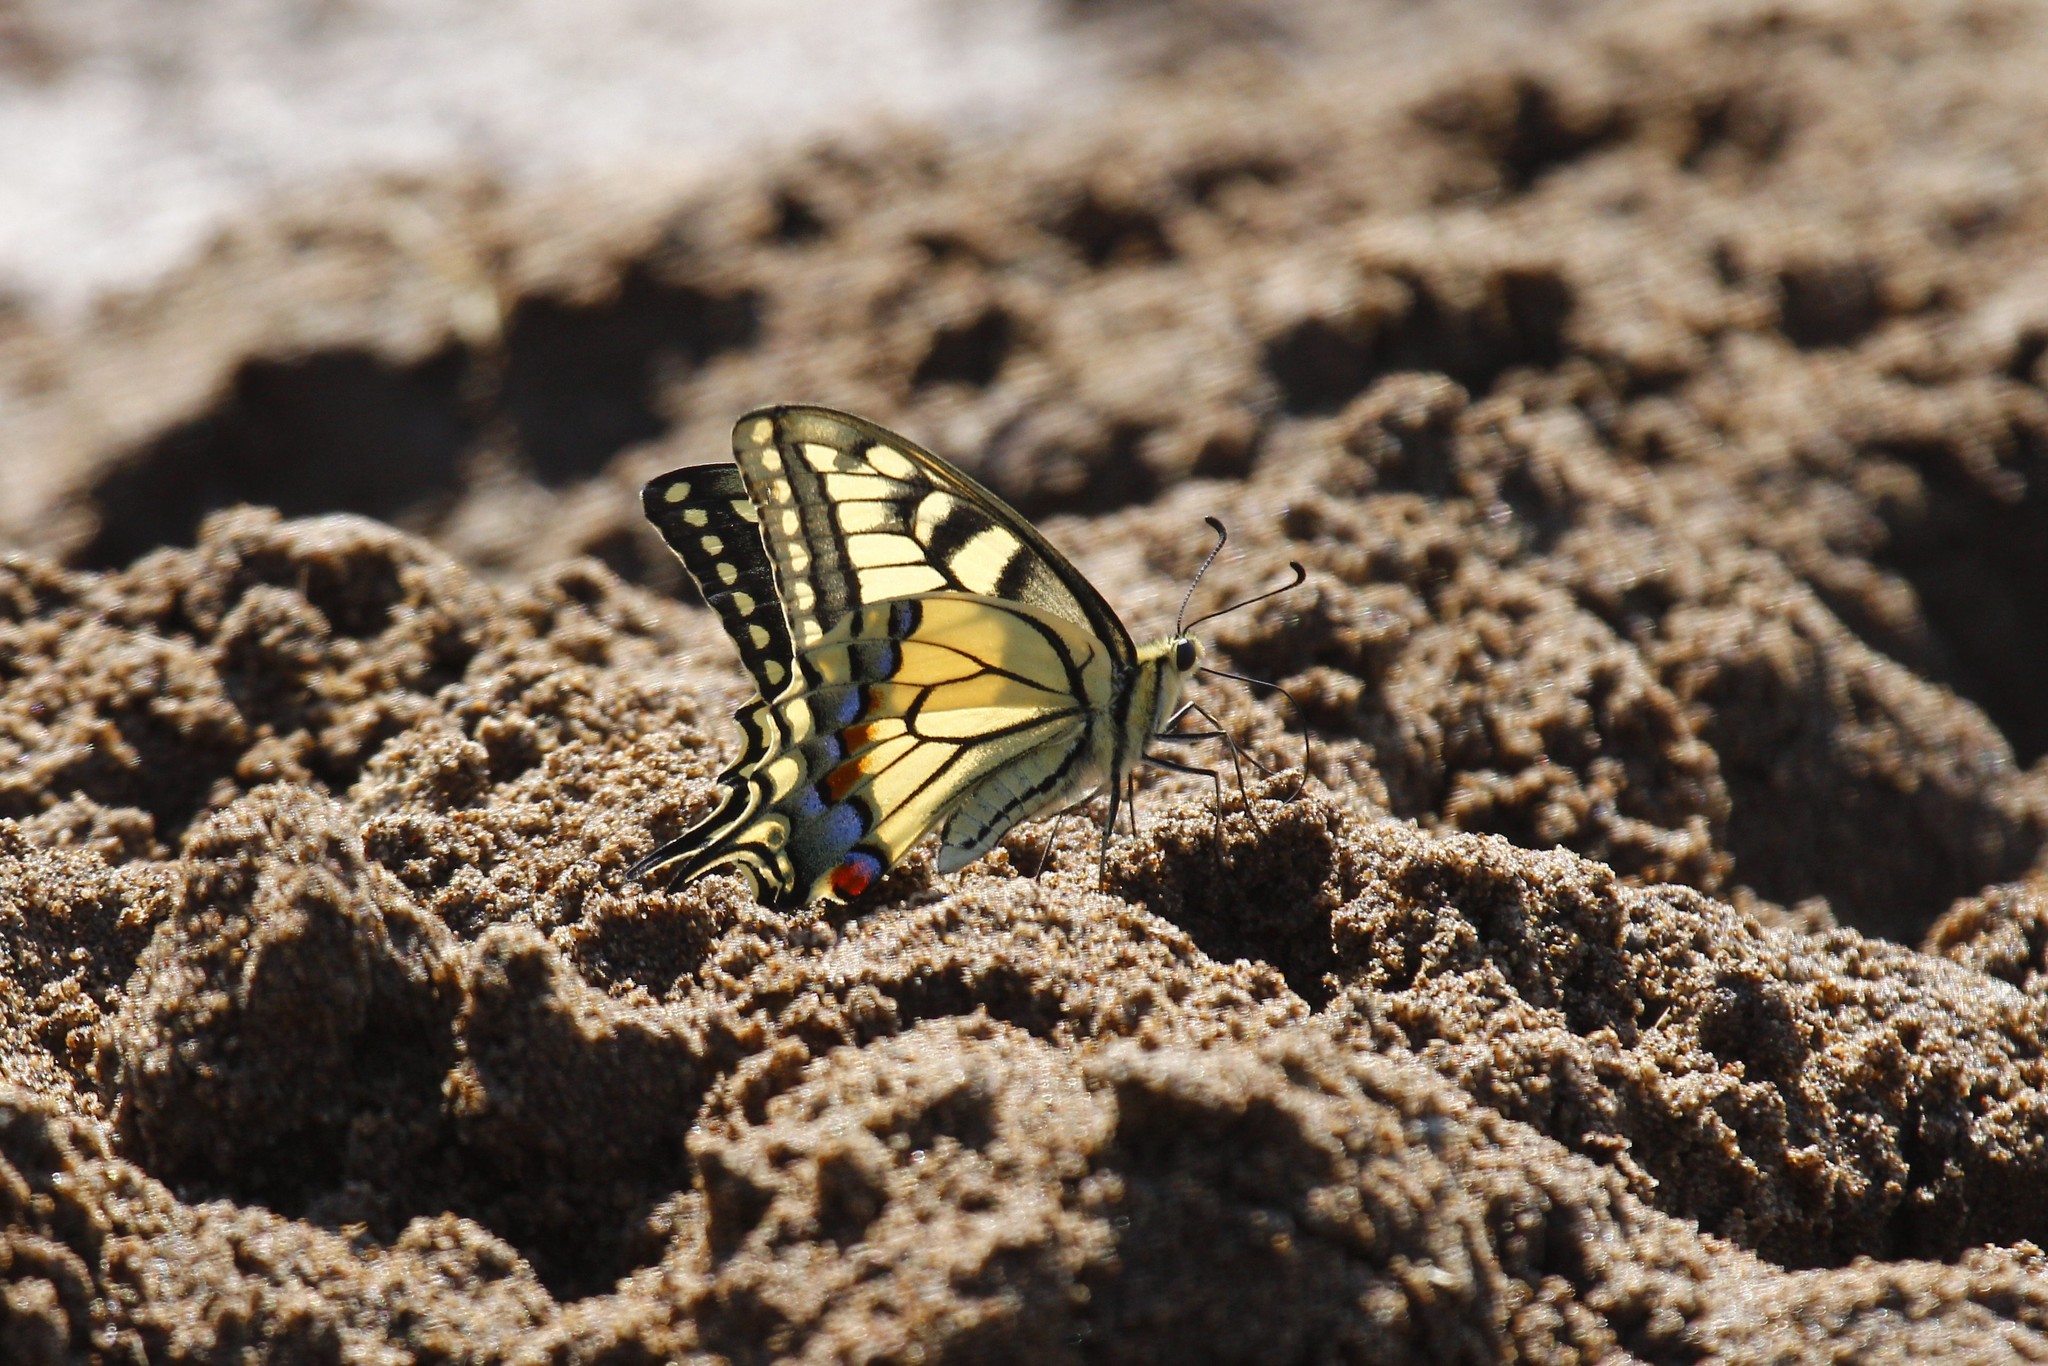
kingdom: Animalia
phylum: Arthropoda
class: Insecta
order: Lepidoptera
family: Papilionidae
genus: Papilio
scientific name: Papilio machaon
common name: Swallowtail
